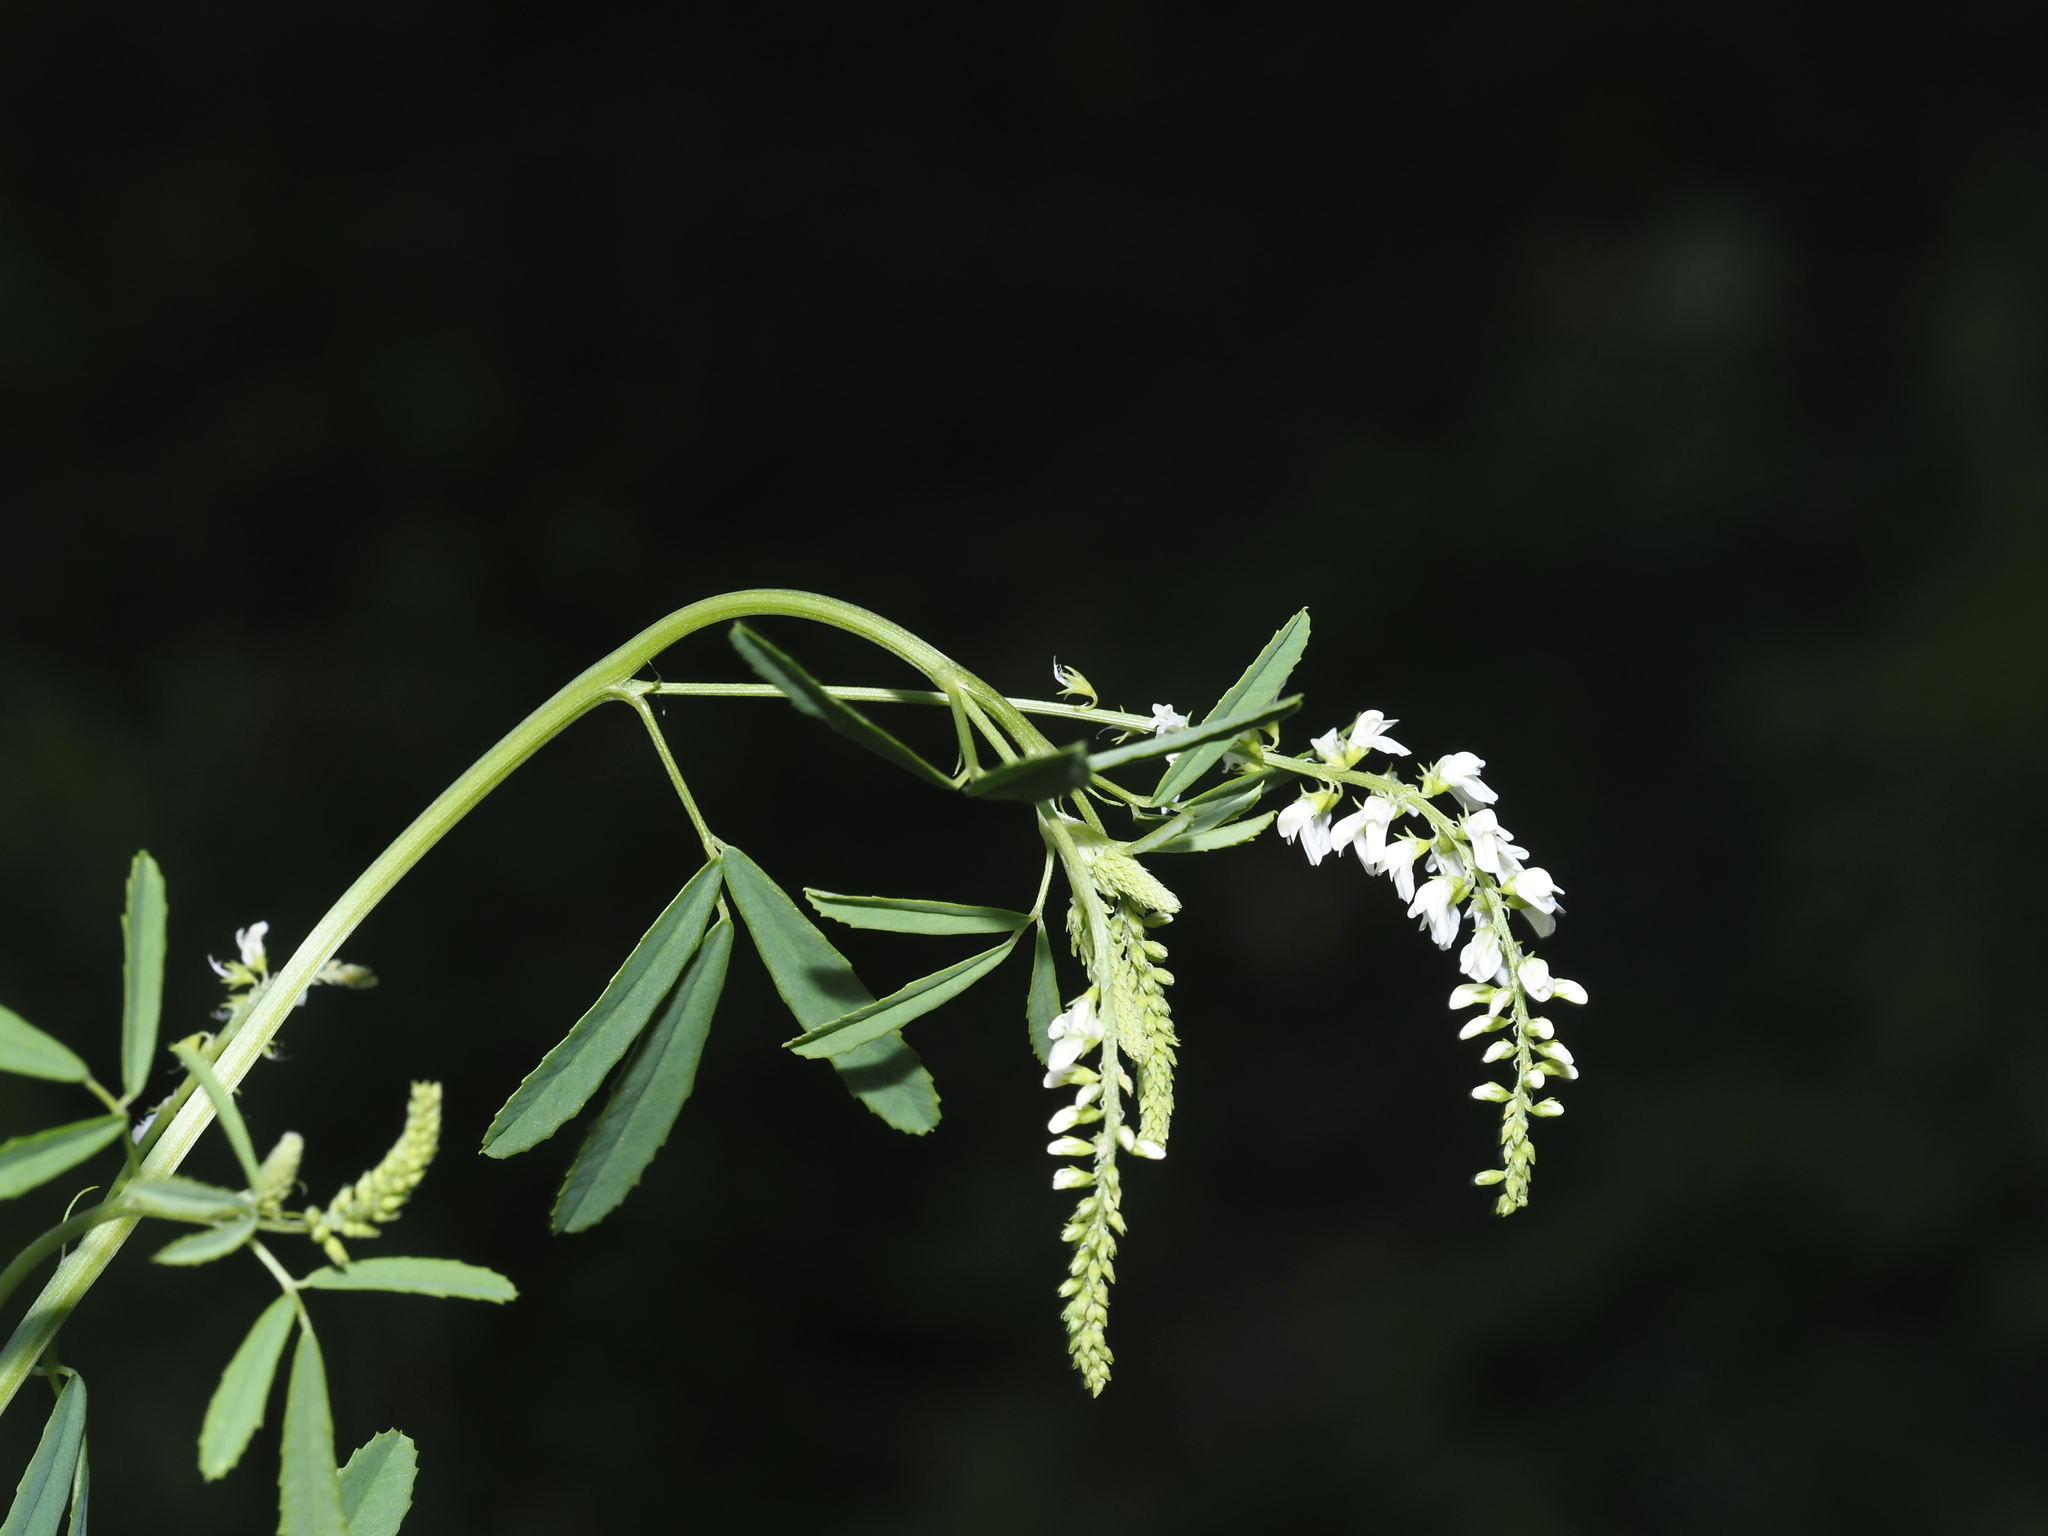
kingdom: Plantae
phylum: Tracheophyta
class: Magnoliopsida
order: Fabales
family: Fabaceae
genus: Melilotus
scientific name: Melilotus albus
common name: White melilot
